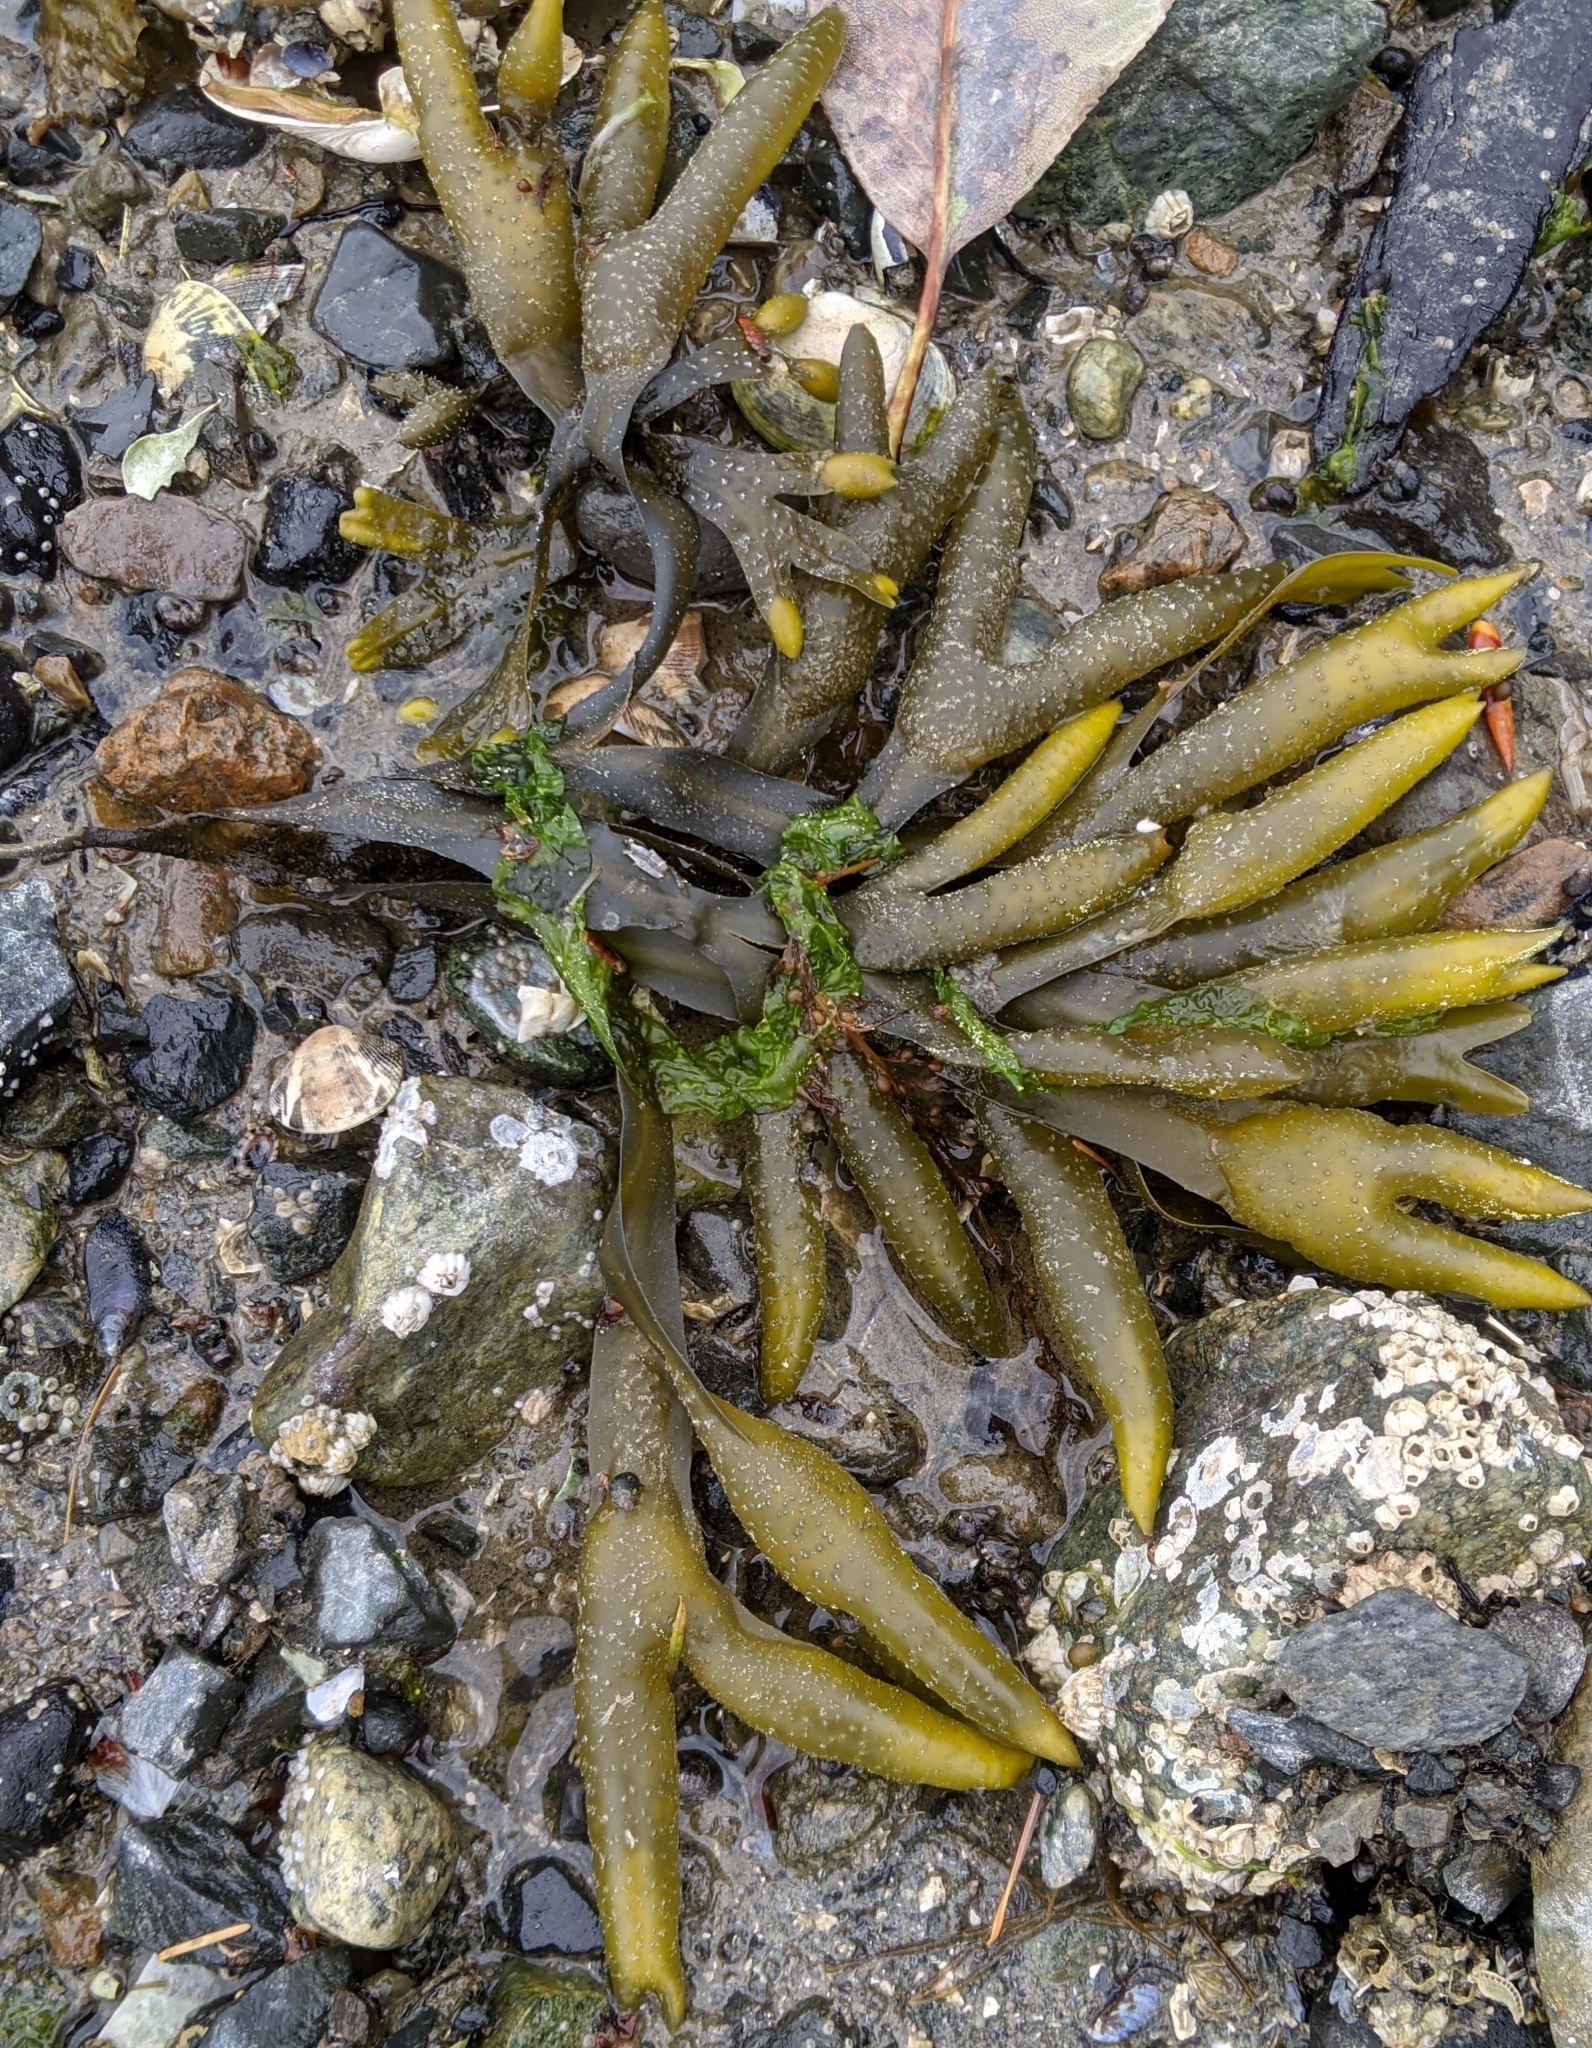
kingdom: Chromista
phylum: Ochrophyta
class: Phaeophyceae
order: Fucales
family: Fucaceae
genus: Fucus
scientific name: Fucus distichus
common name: Rockweed
